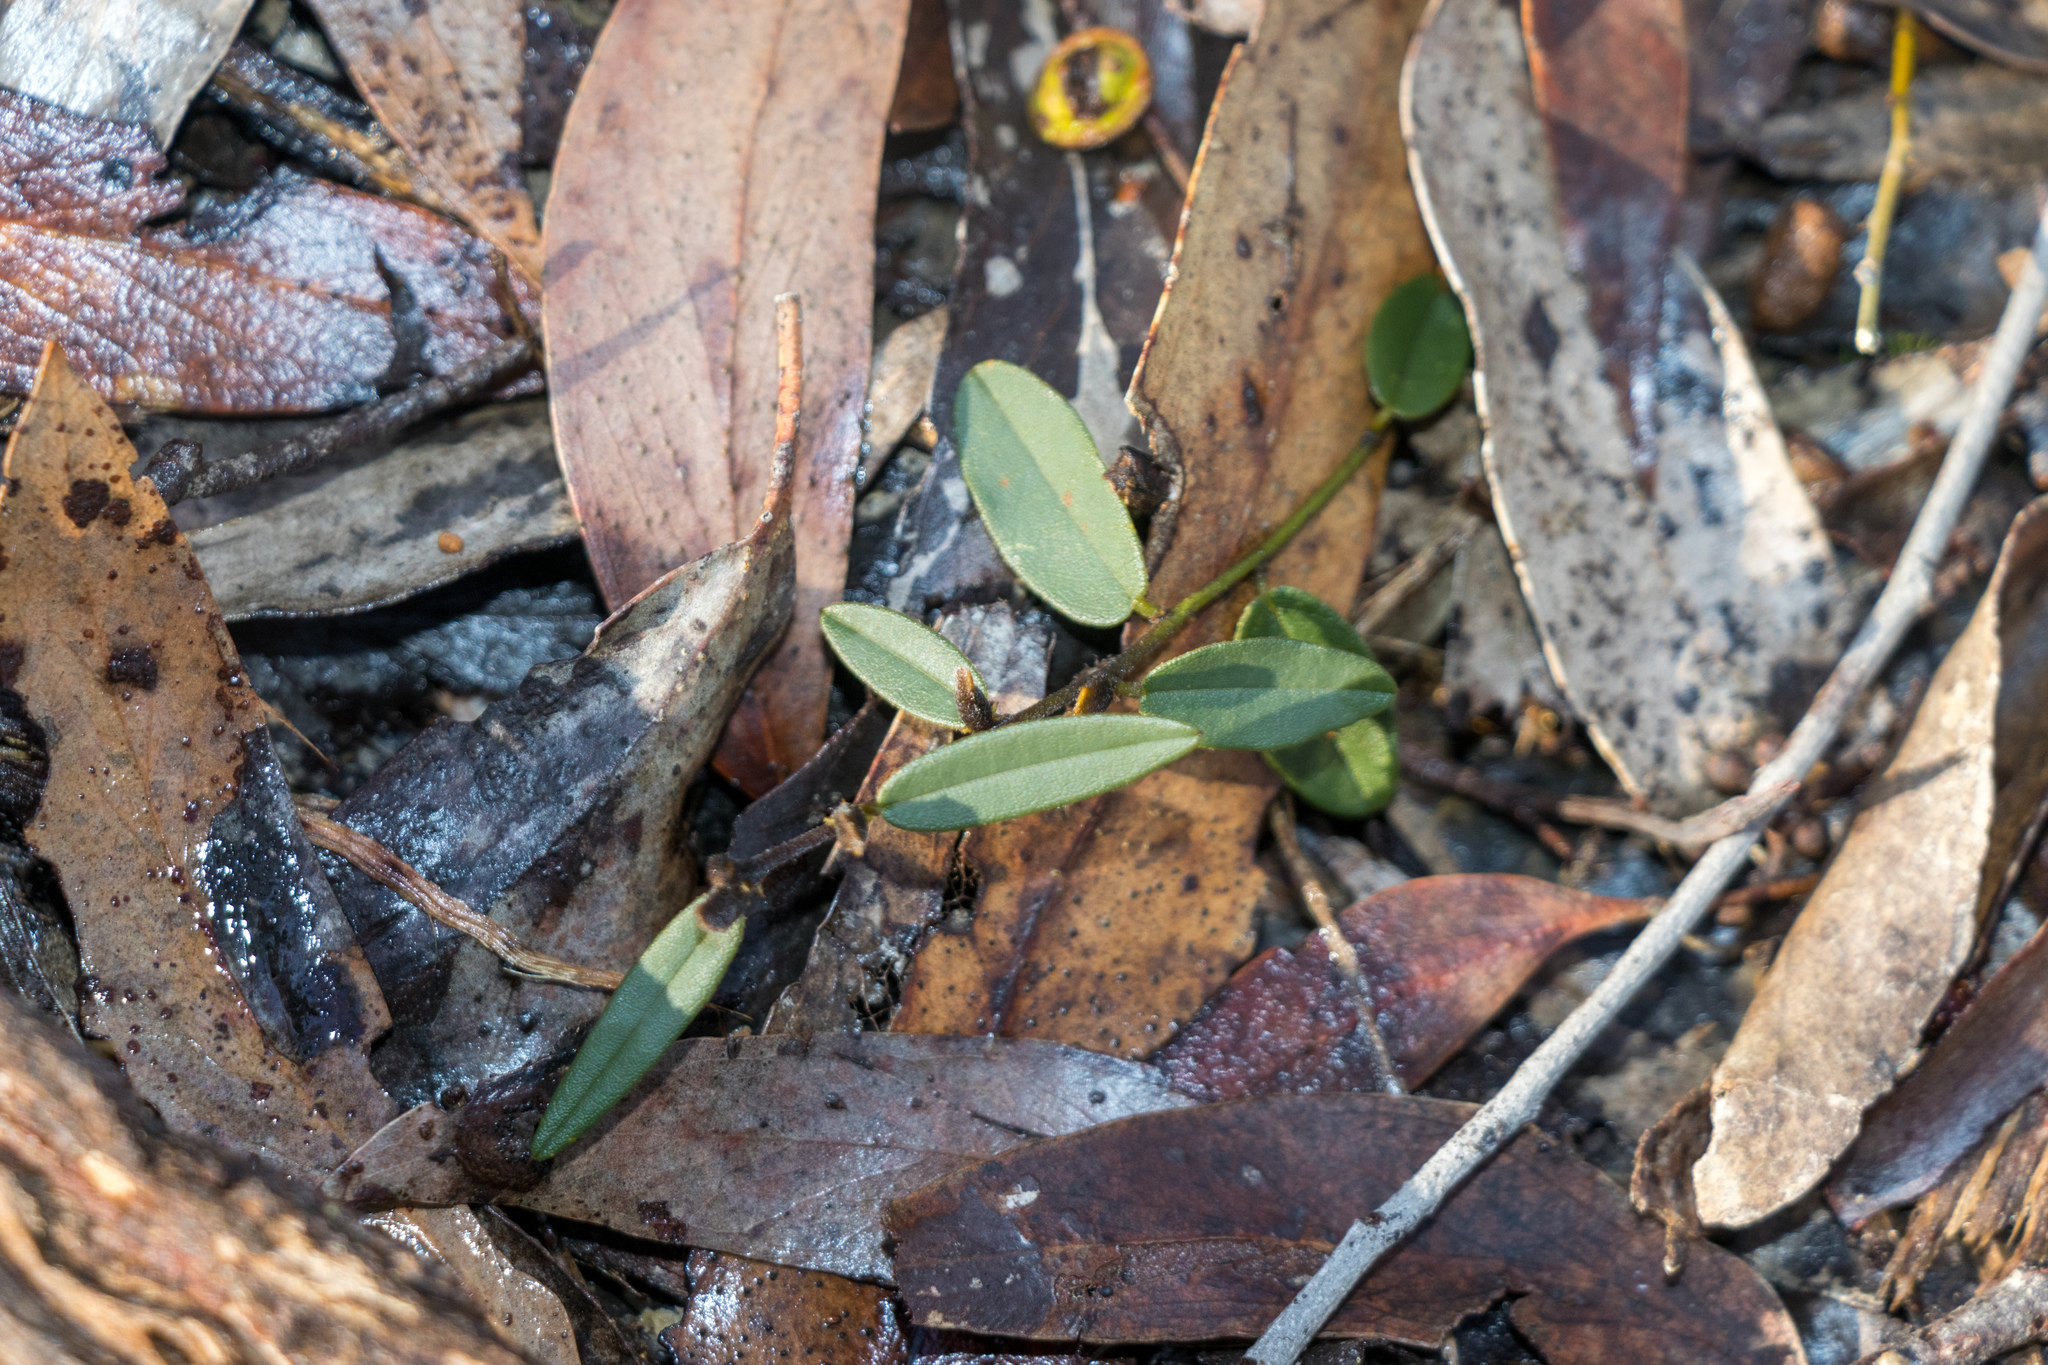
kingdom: Plantae
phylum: Tracheophyta
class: Magnoliopsida
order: Fabales
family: Fabaceae
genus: Hovea
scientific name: Hovea heterophylla
